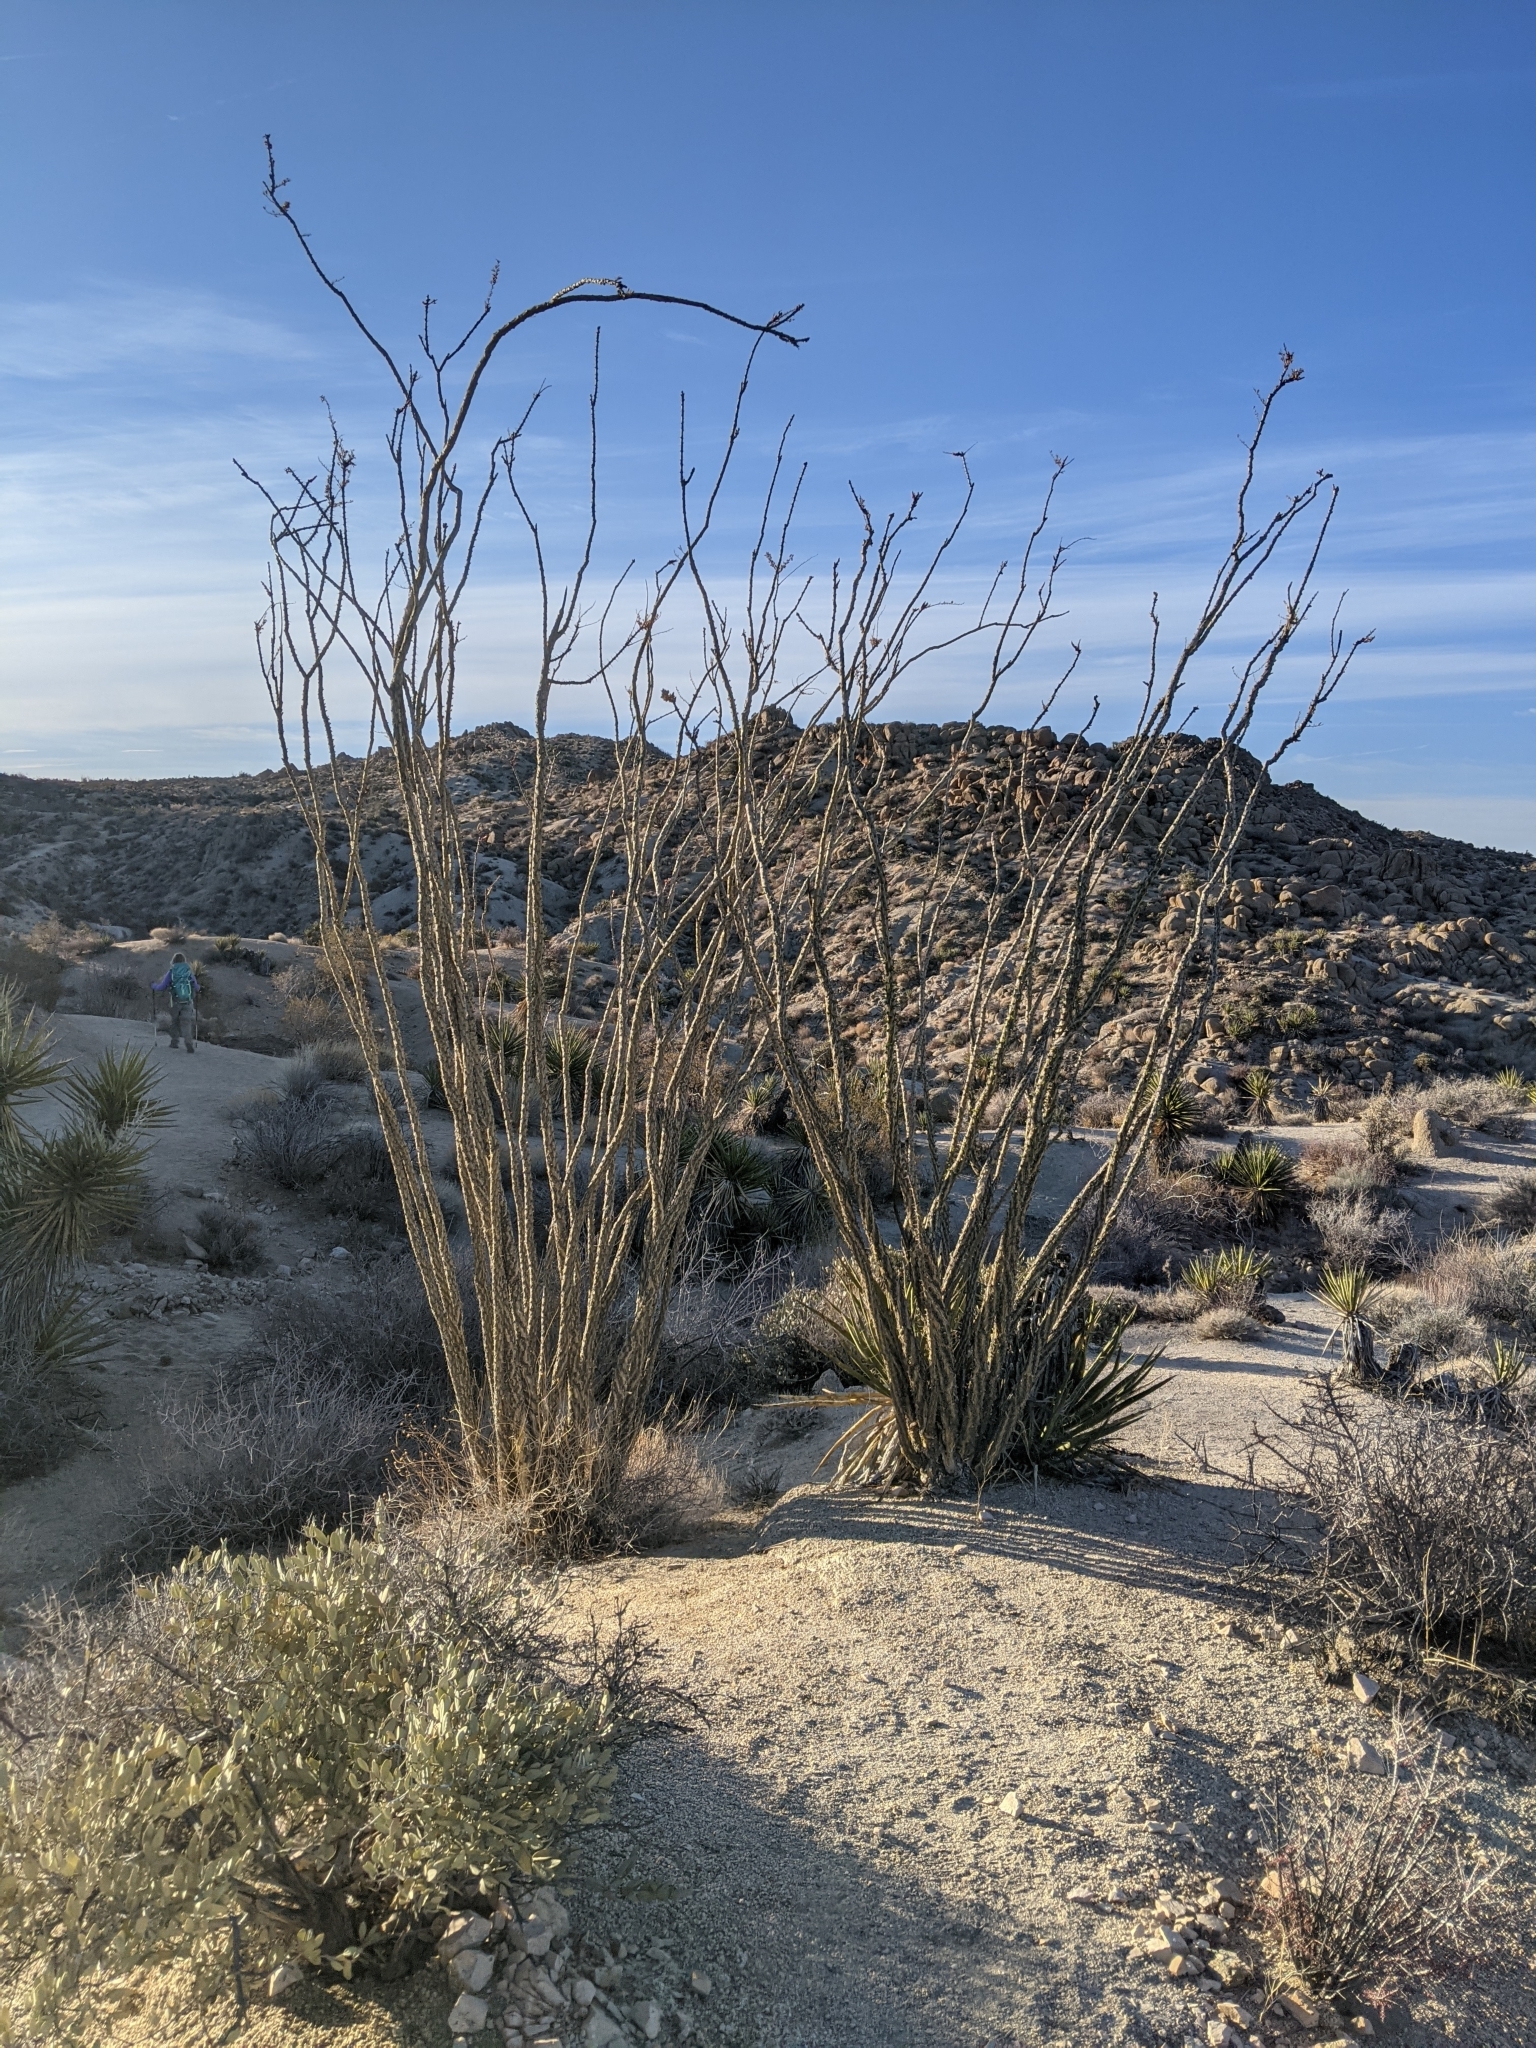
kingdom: Plantae
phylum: Tracheophyta
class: Magnoliopsida
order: Ericales
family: Fouquieriaceae
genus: Fouquieria
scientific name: Fouquieria splendens
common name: Vine-cactus
